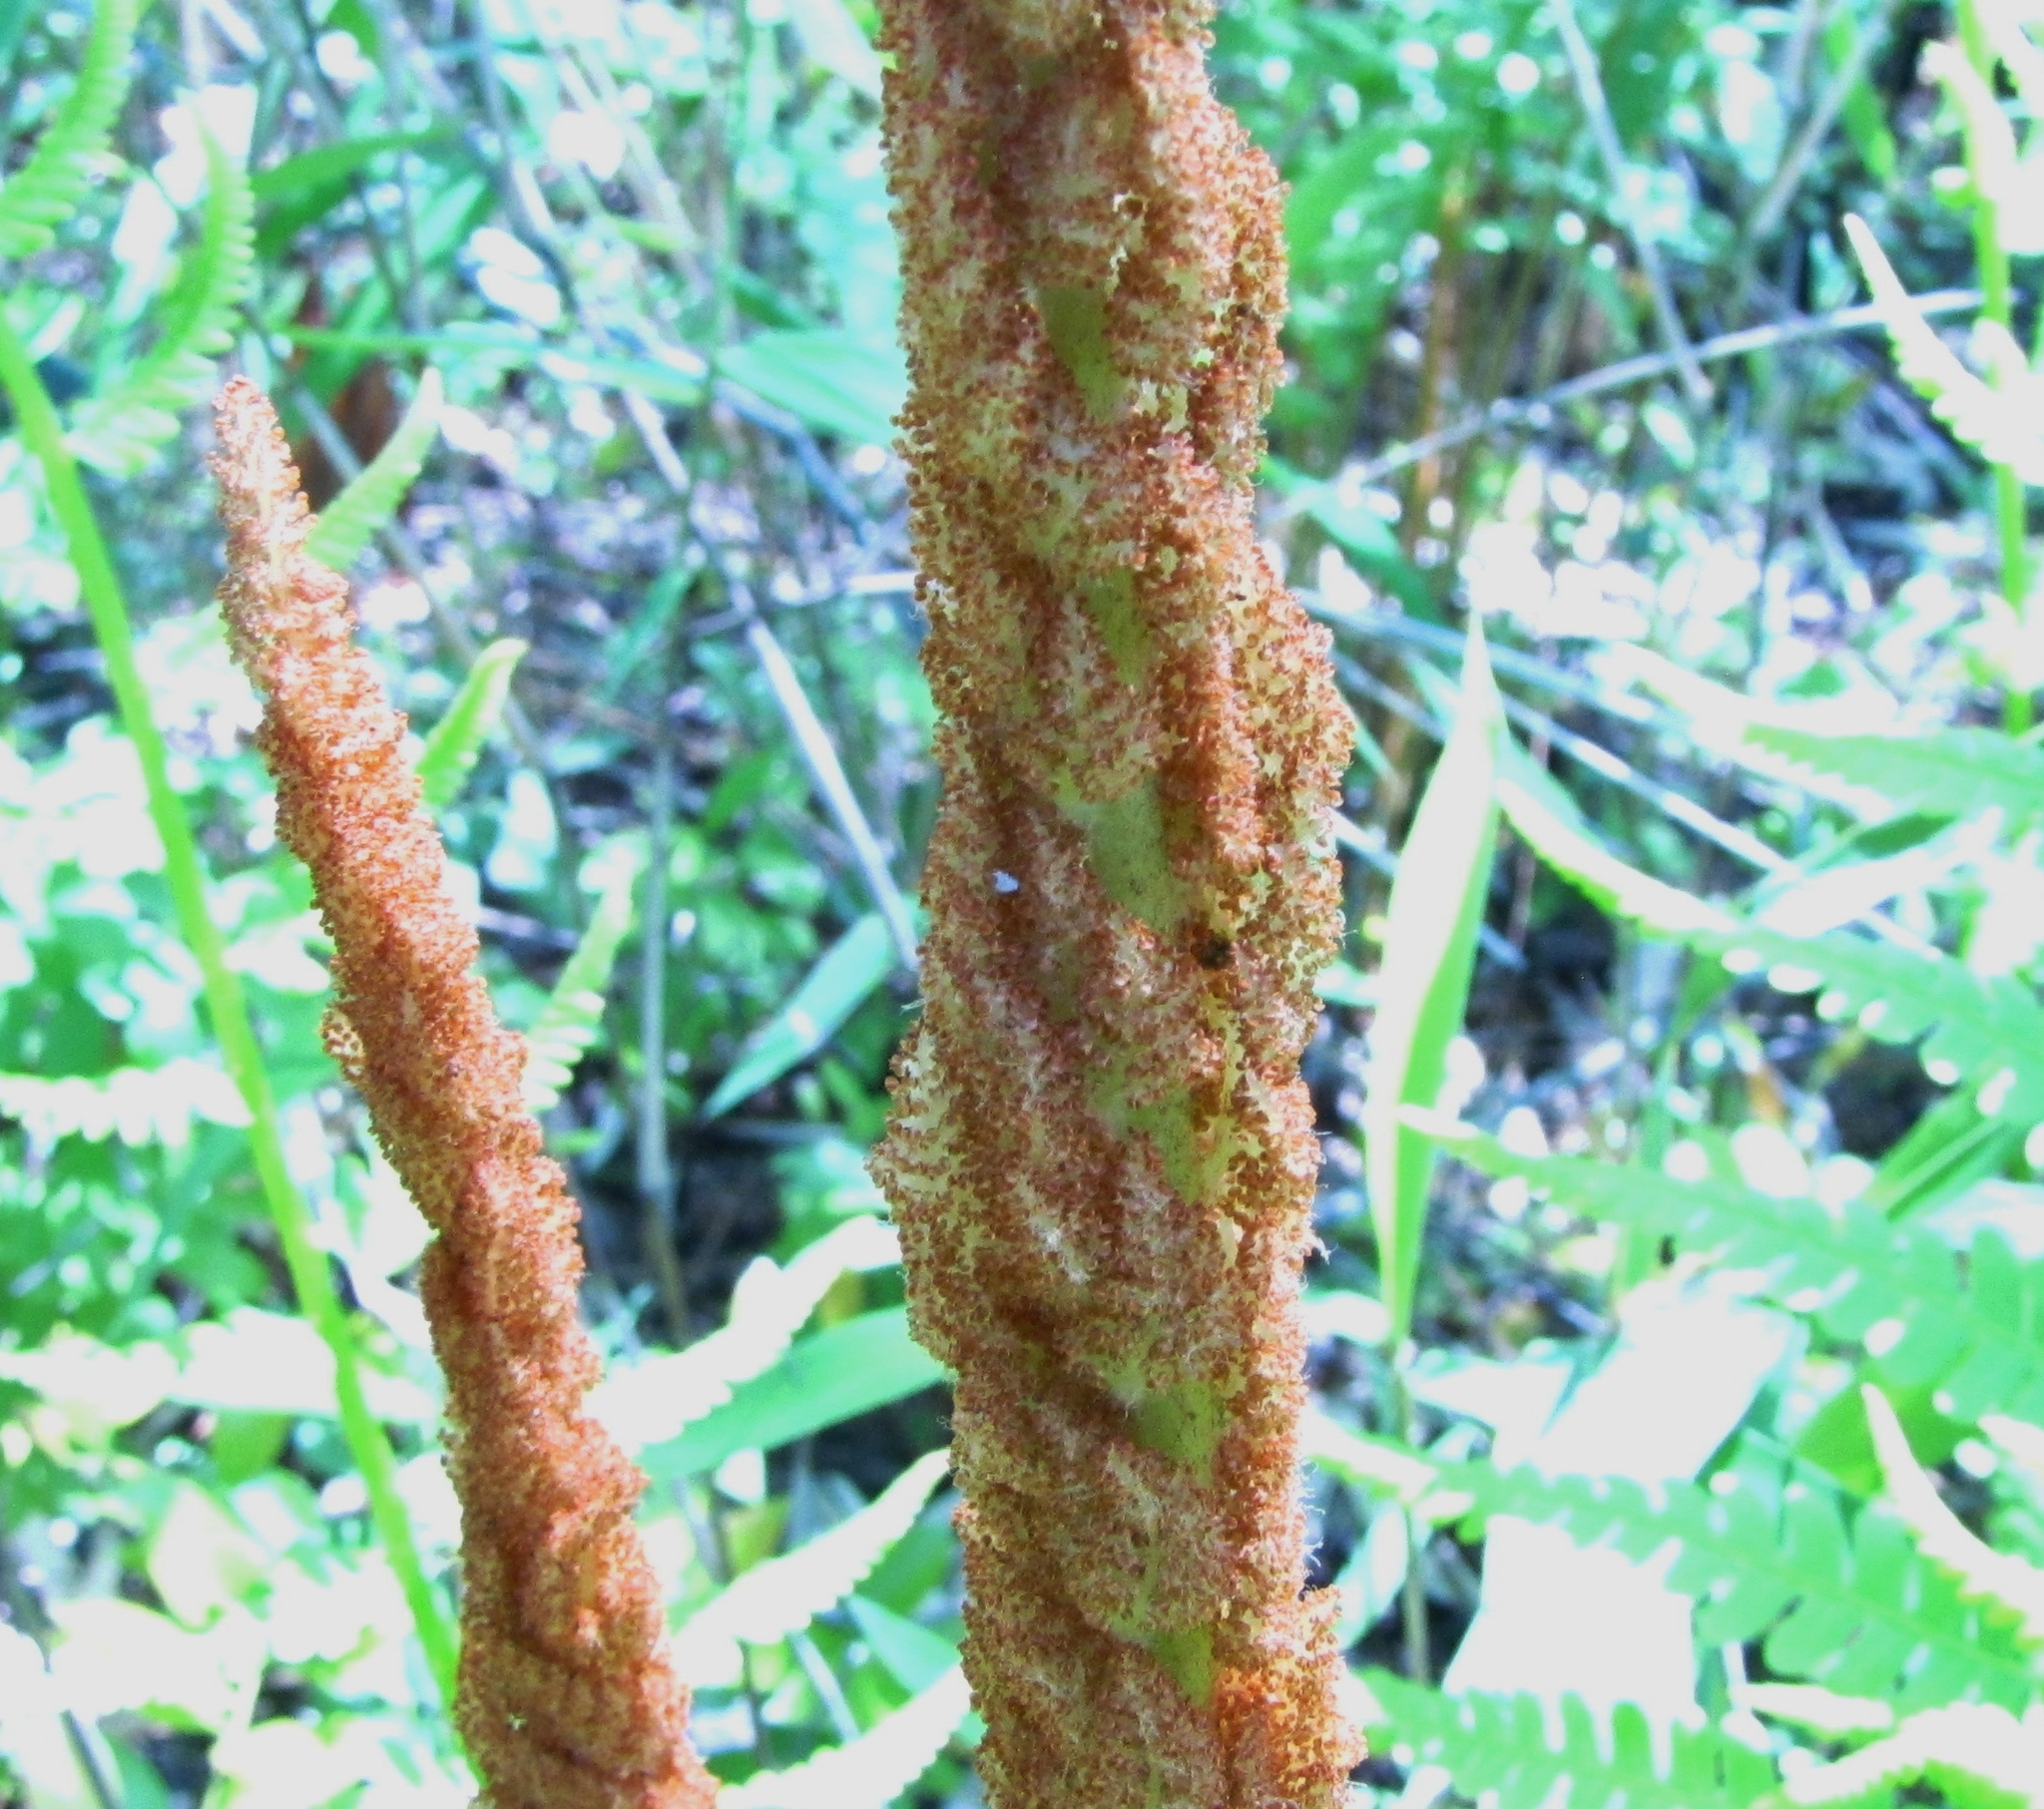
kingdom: Plantae
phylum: Tracheophyta
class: Polypodiopsida
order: Osmundales
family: Osmundaceae
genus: Osmundastrum
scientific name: Osmundastrum cinnamomeum
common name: Cinnamon fern
